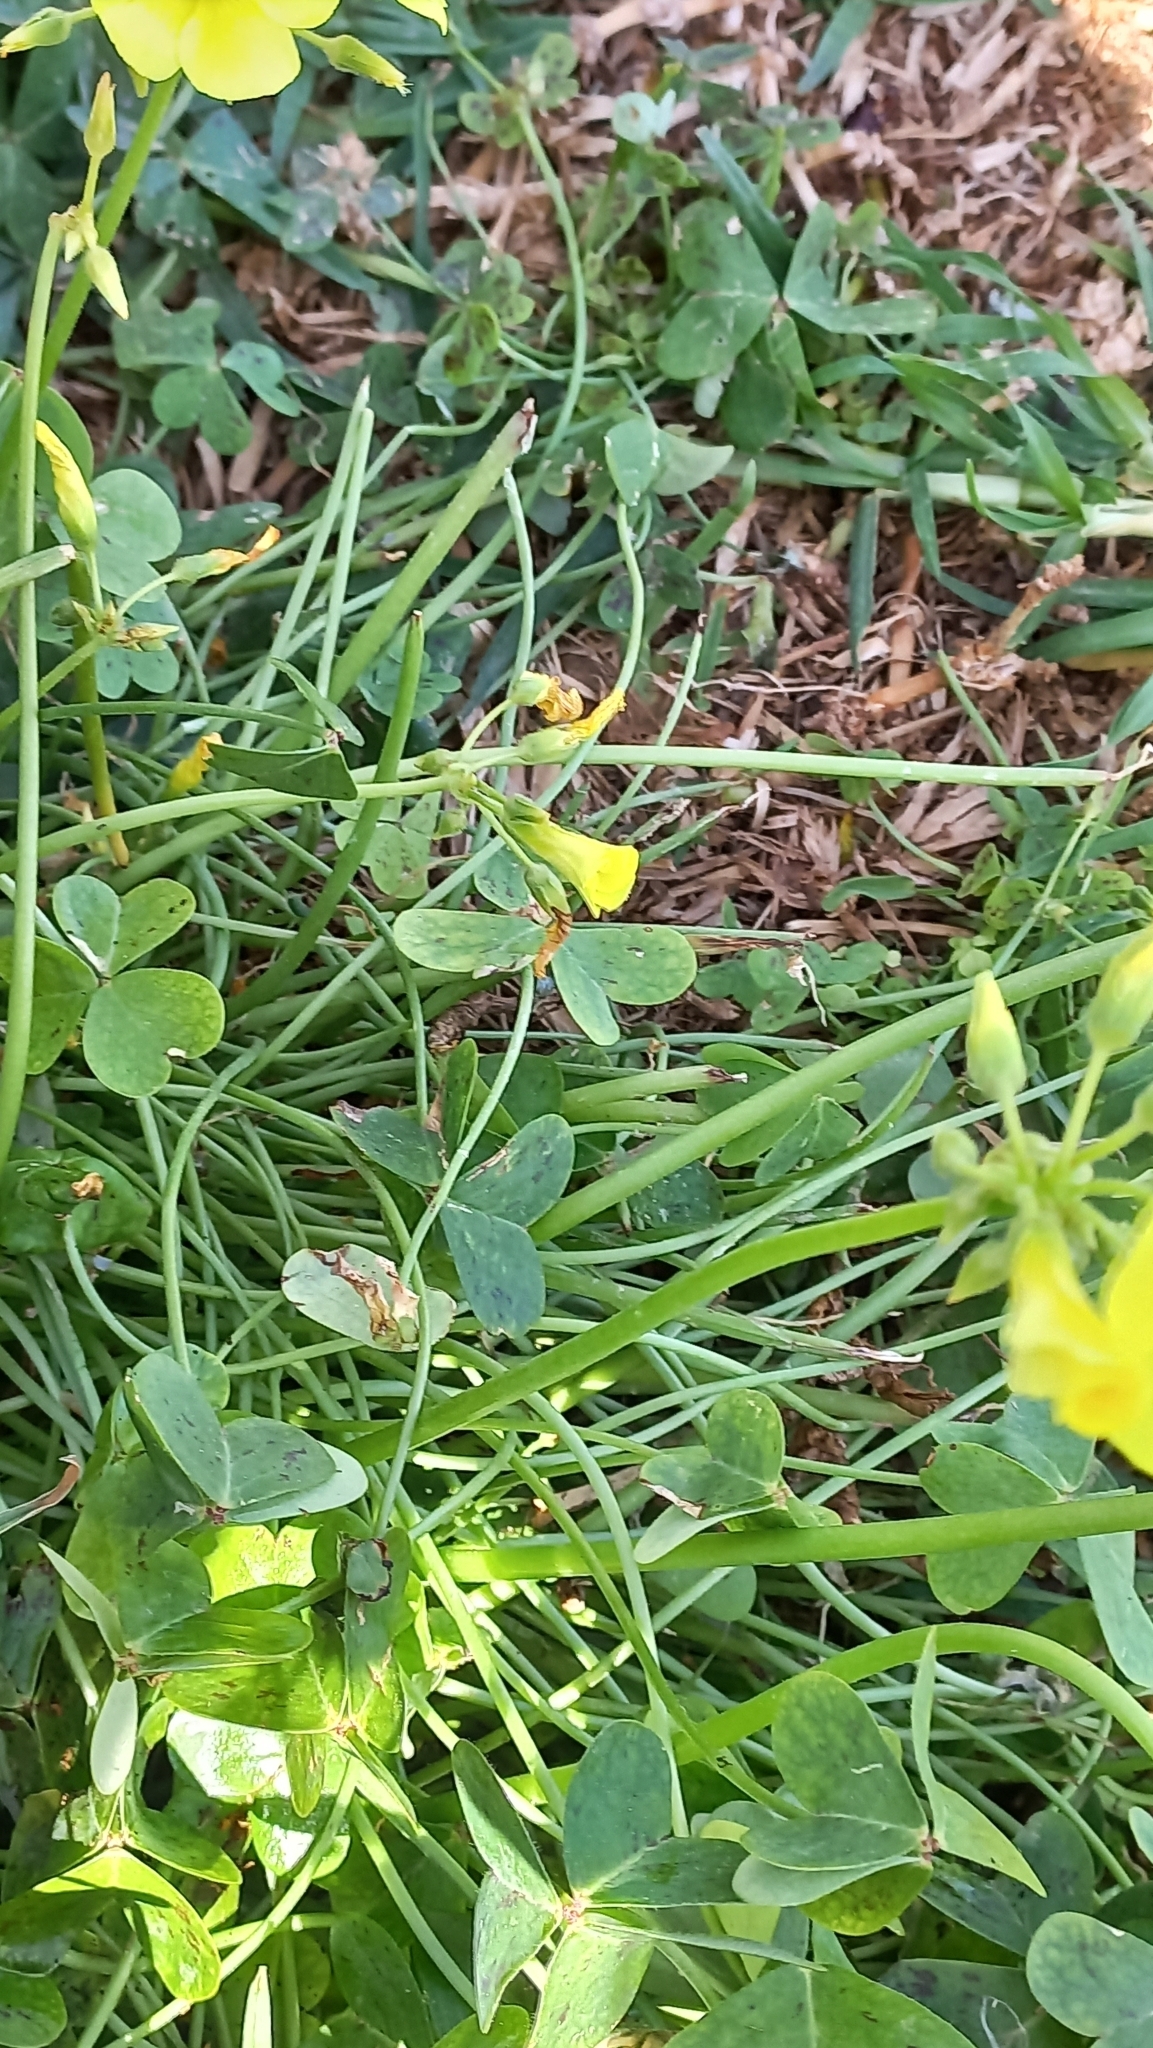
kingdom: Plantae
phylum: Tracheophyta
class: Magnoliopsida
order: Oxalidales
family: Oxalidaceae
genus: Oxalis
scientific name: Oxalis pes-caprae
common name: Bermuda-buttercup
